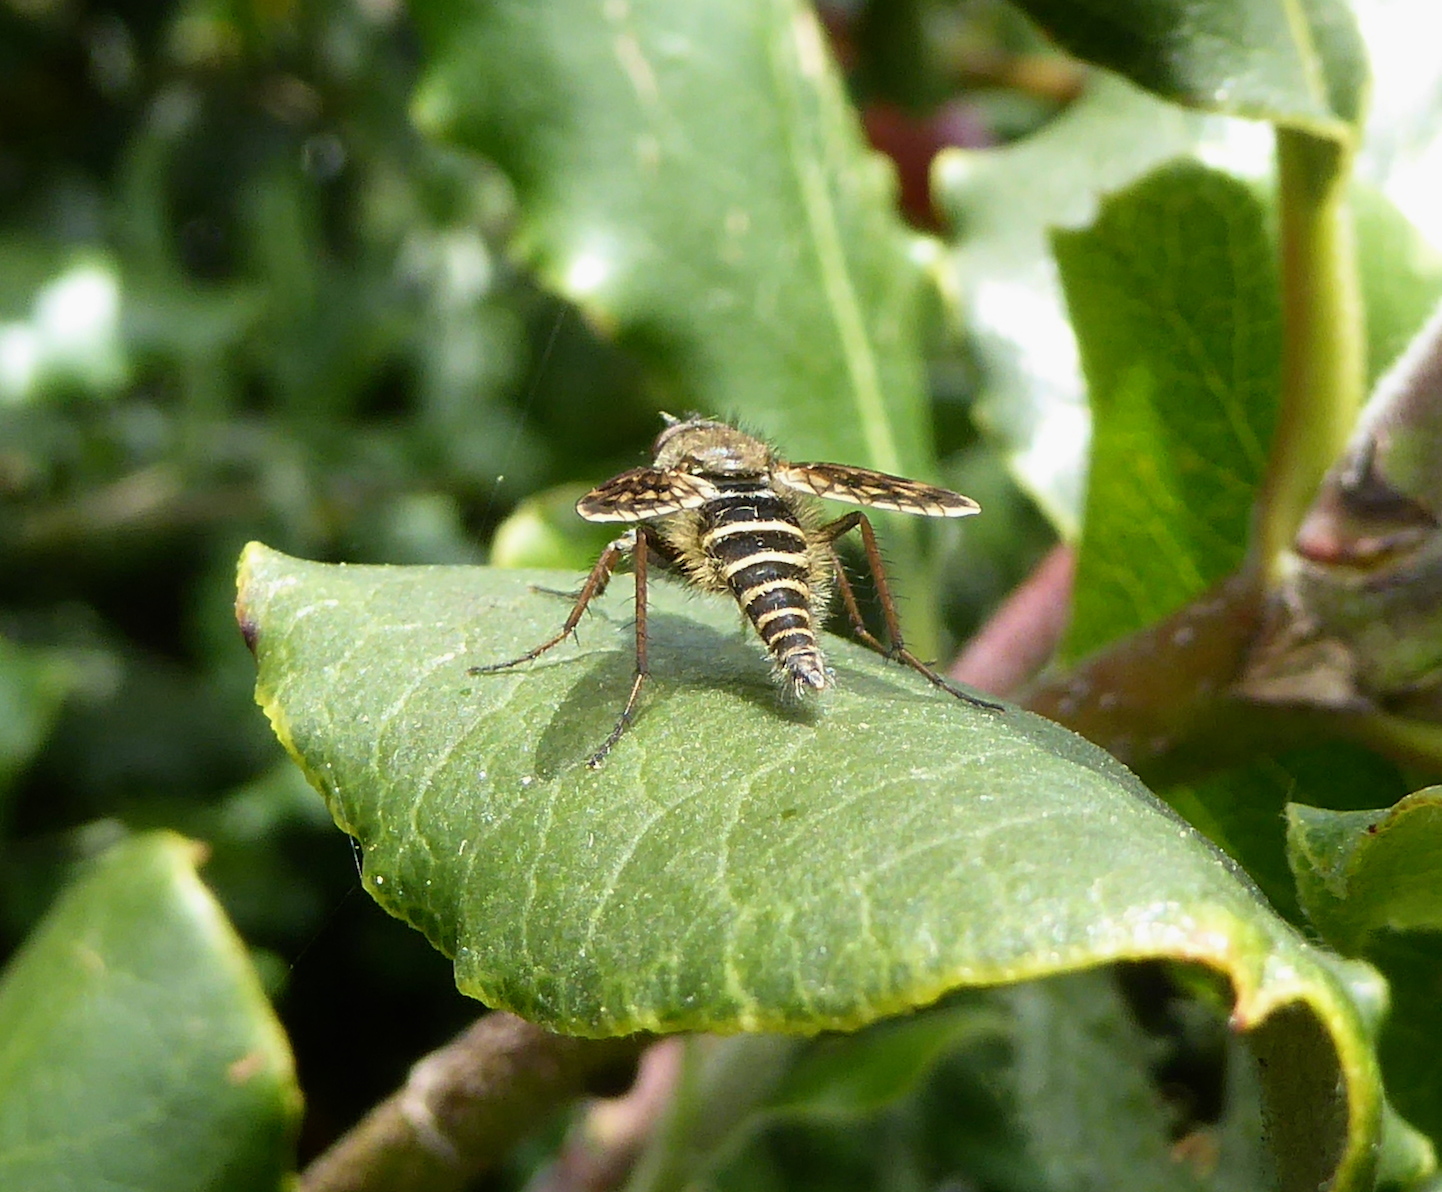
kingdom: Animalia
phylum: Arthropoda
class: Insecta
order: Diptera
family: Therevidae
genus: Thereva
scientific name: Thereva comata
